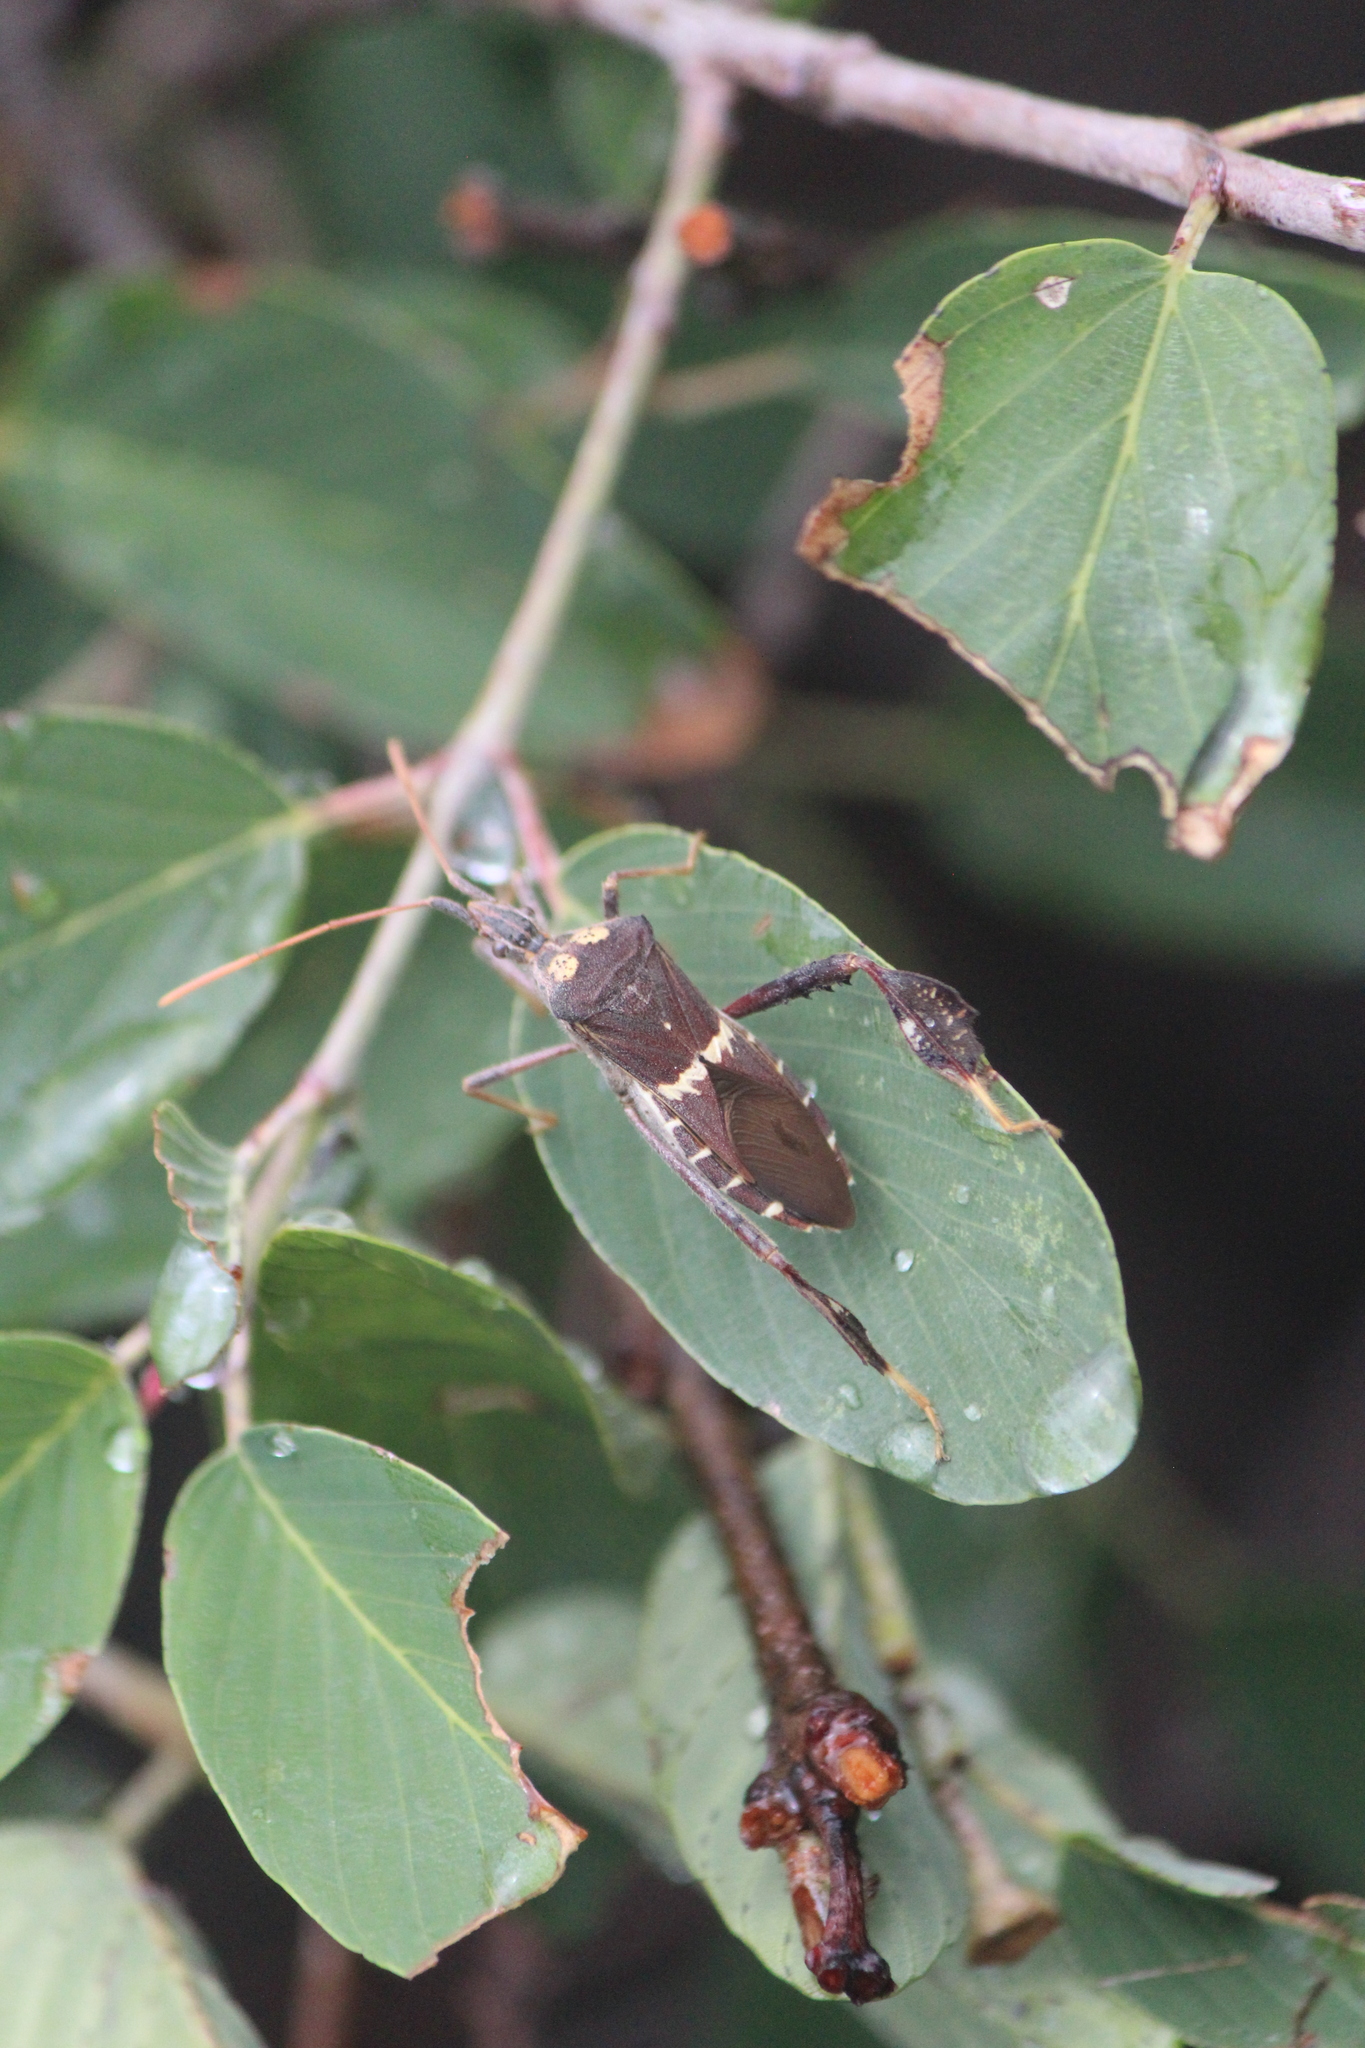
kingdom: Animalia
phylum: Arthropoda
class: Insecta
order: Hemiptera
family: Coreidae
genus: Leptoglossus
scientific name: Leptoglossus zonatus
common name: Large-legged bug
